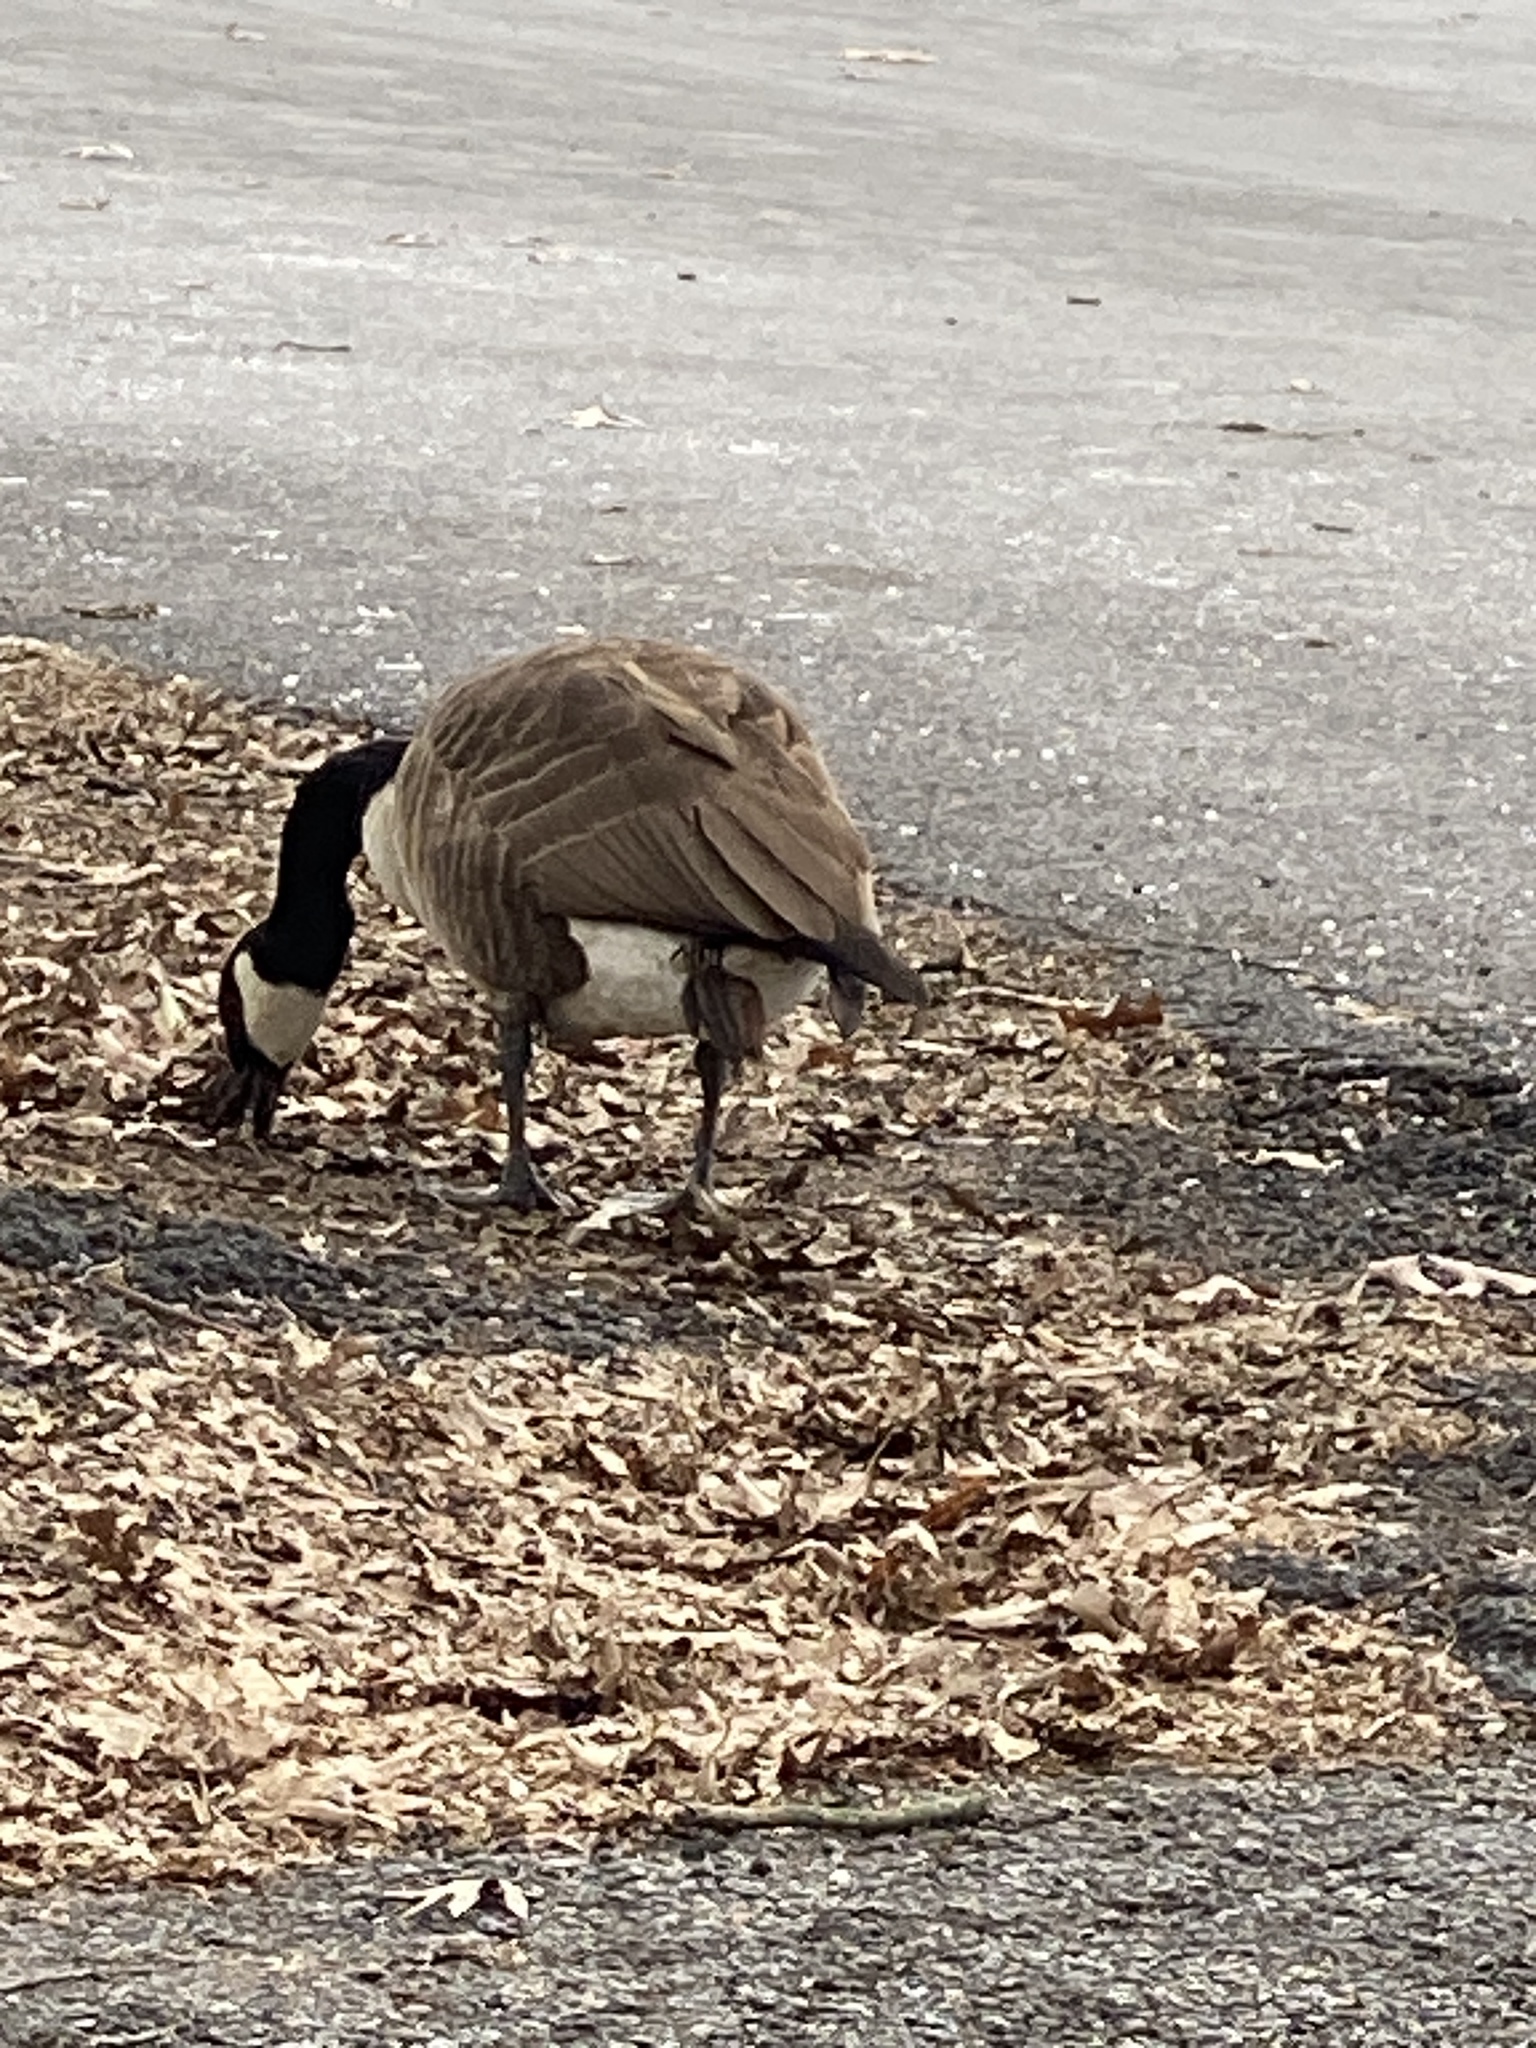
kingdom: Animalia
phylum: Chordata
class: Aves
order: Anseriformes
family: Anatidae
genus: Branta
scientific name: Branta canadensis
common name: Canada goose
